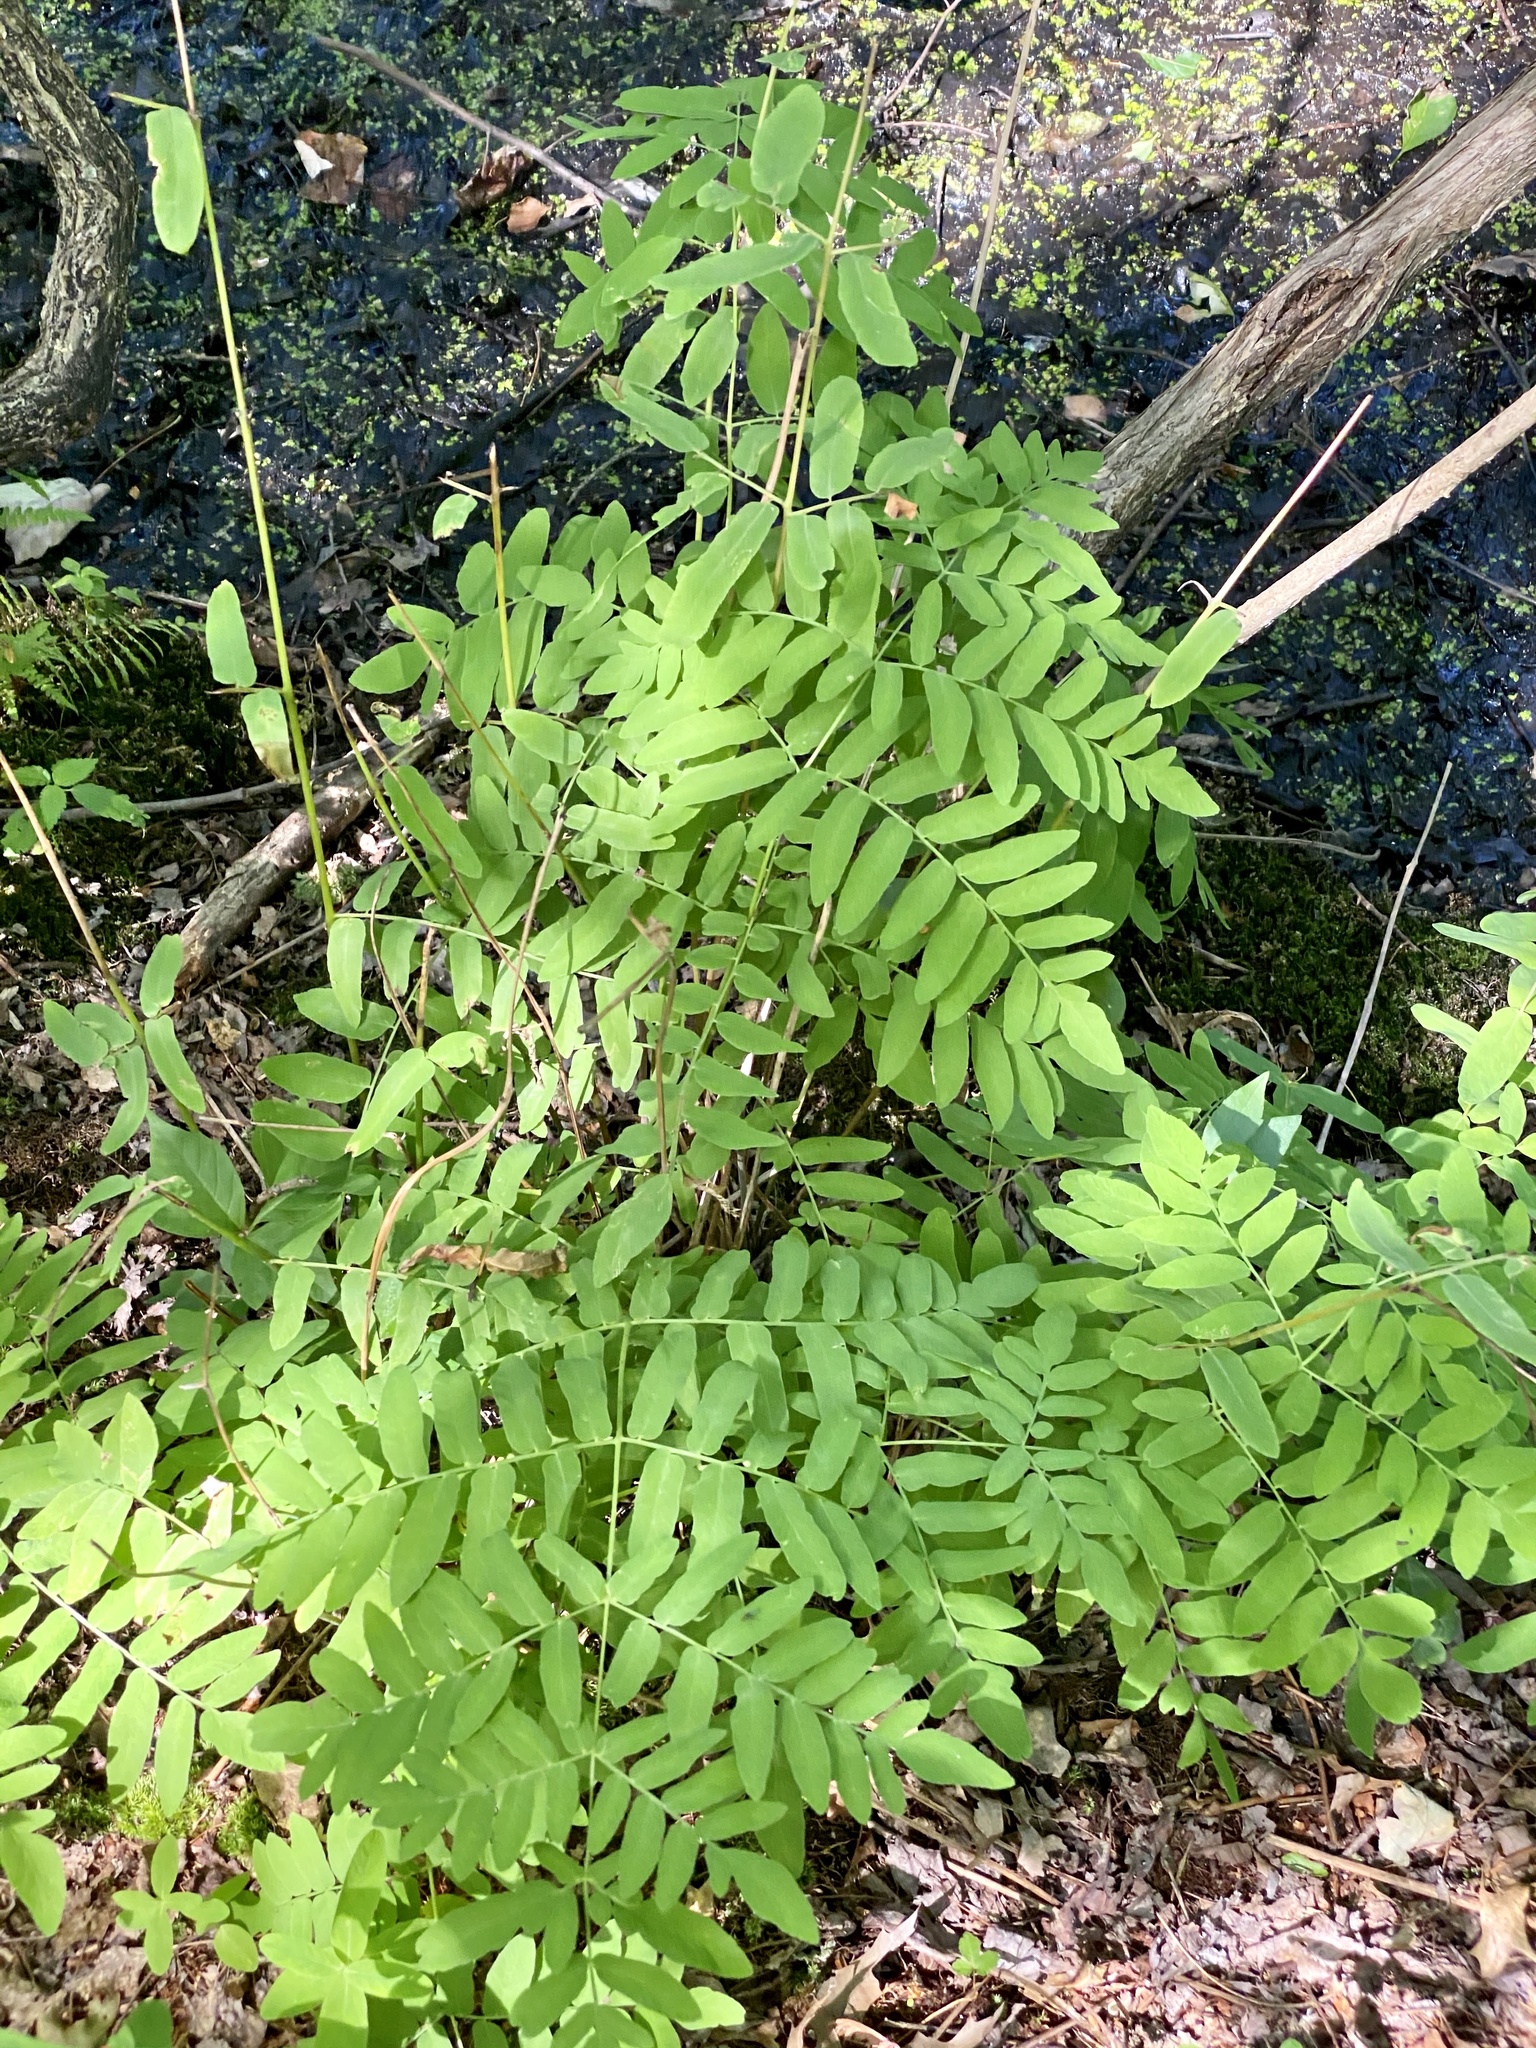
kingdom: Plantae
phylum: Tracheophyta
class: Polypodiopsida
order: Osmundales
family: Osmundaceae
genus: Osmunda
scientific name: Osmunda spectabilis
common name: American royal fern
